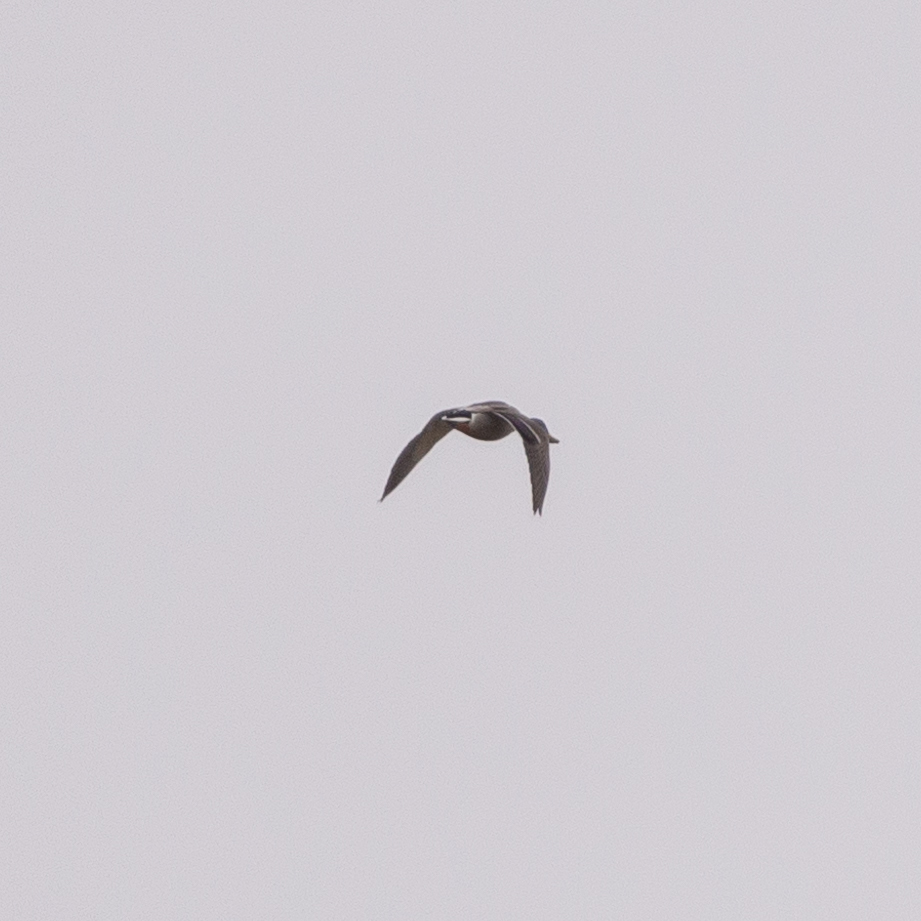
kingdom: Animalia
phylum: Chordata
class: Aves
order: Anseriformes
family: Anatidae
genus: Anas
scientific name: Anas platyrhynchos
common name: Mallard
